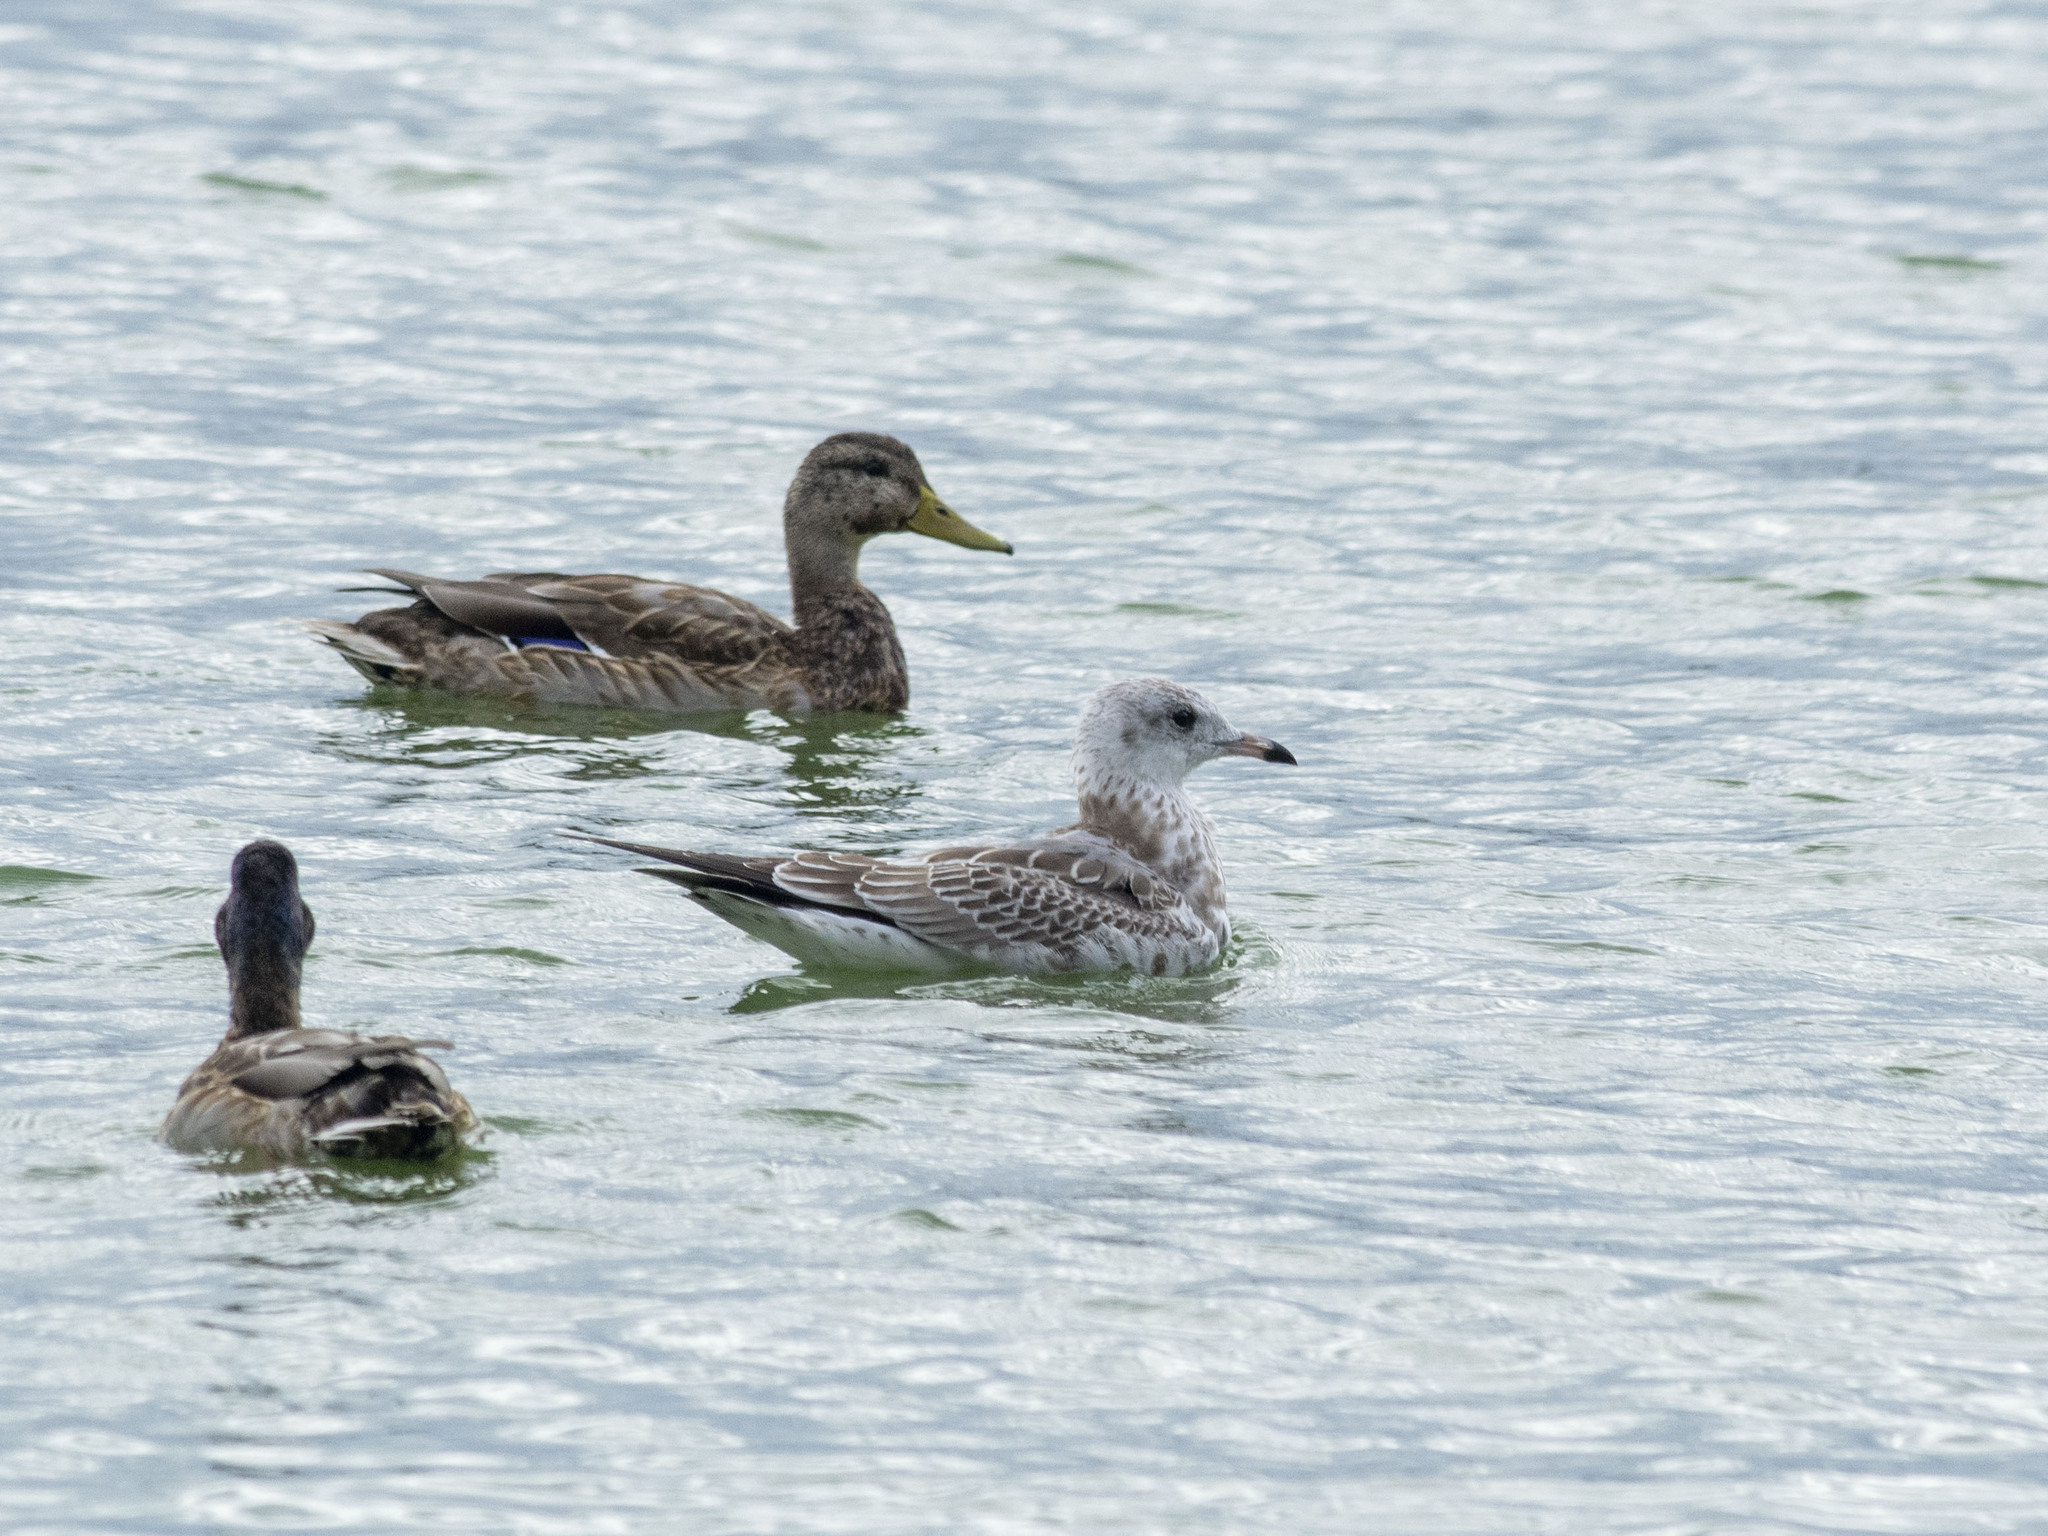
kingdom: Animalia
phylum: Chordata
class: Aves
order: Charadriiformes
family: Laridae
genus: Larus
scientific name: Larus canus
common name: Mew gull
